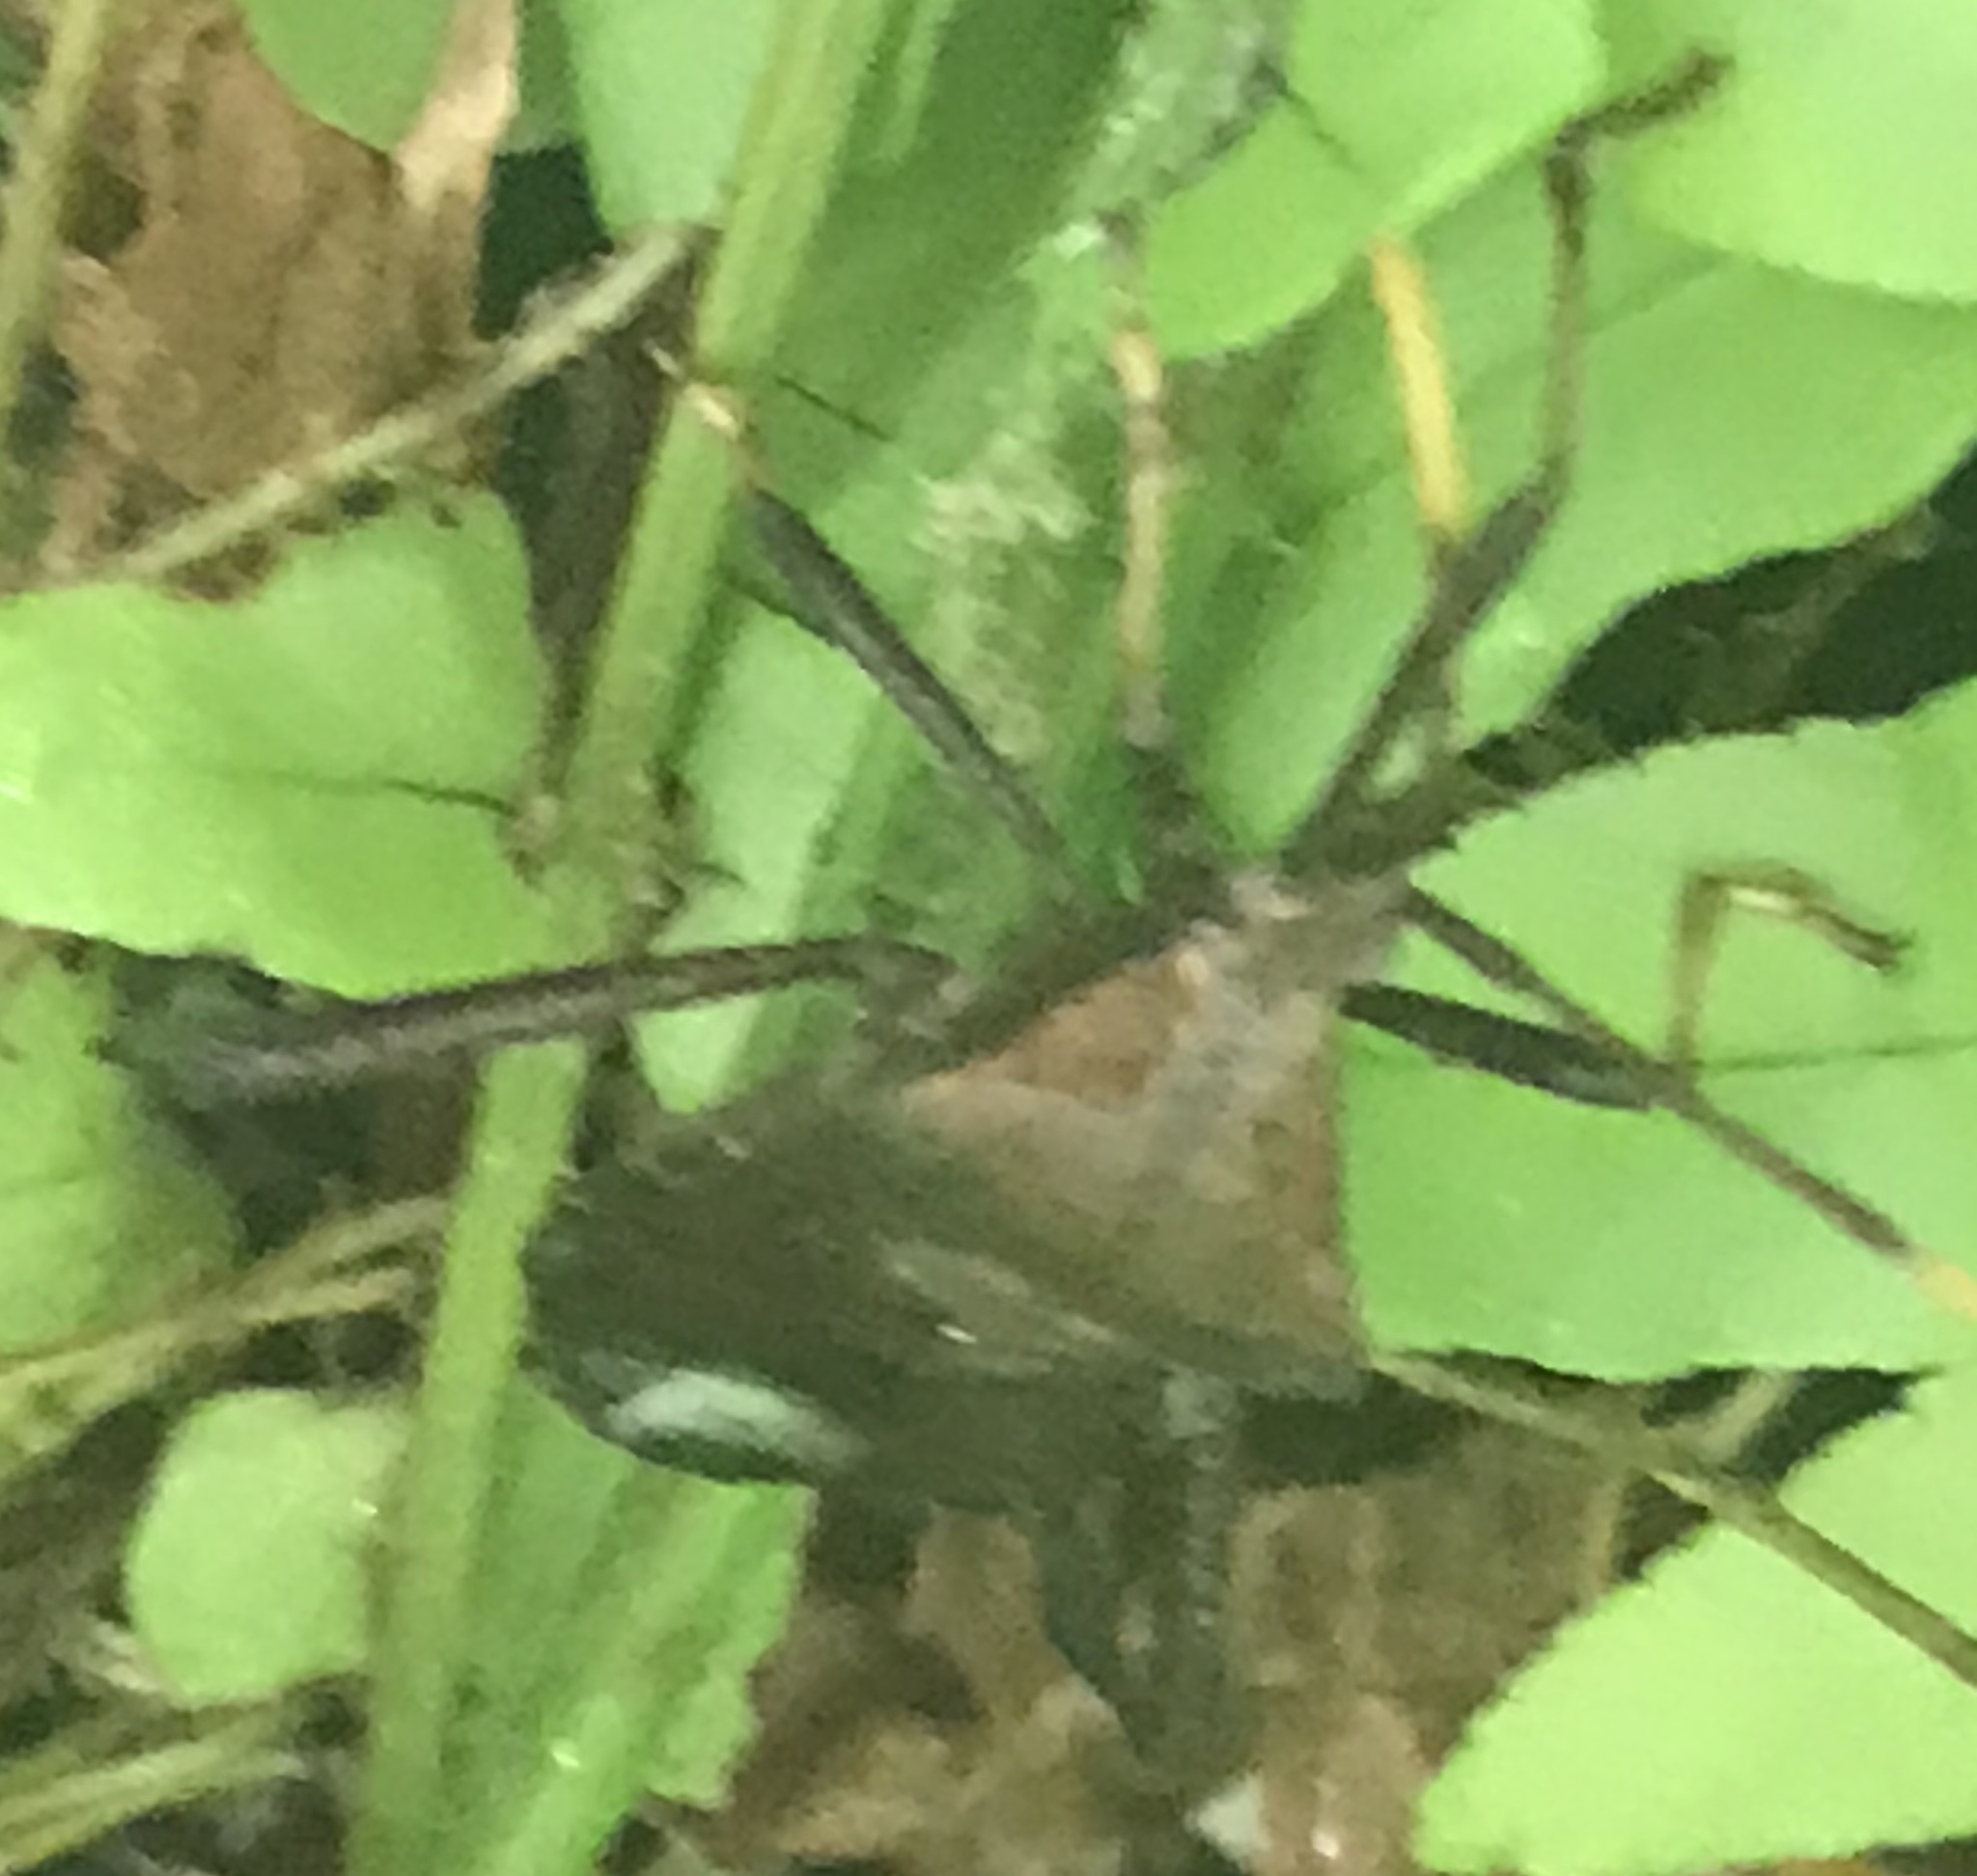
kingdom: Animalia
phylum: Arthropoda
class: Insecta
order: Hemiptera
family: Coreidae
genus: Acanthocephala
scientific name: Acanthocephala terminalis
